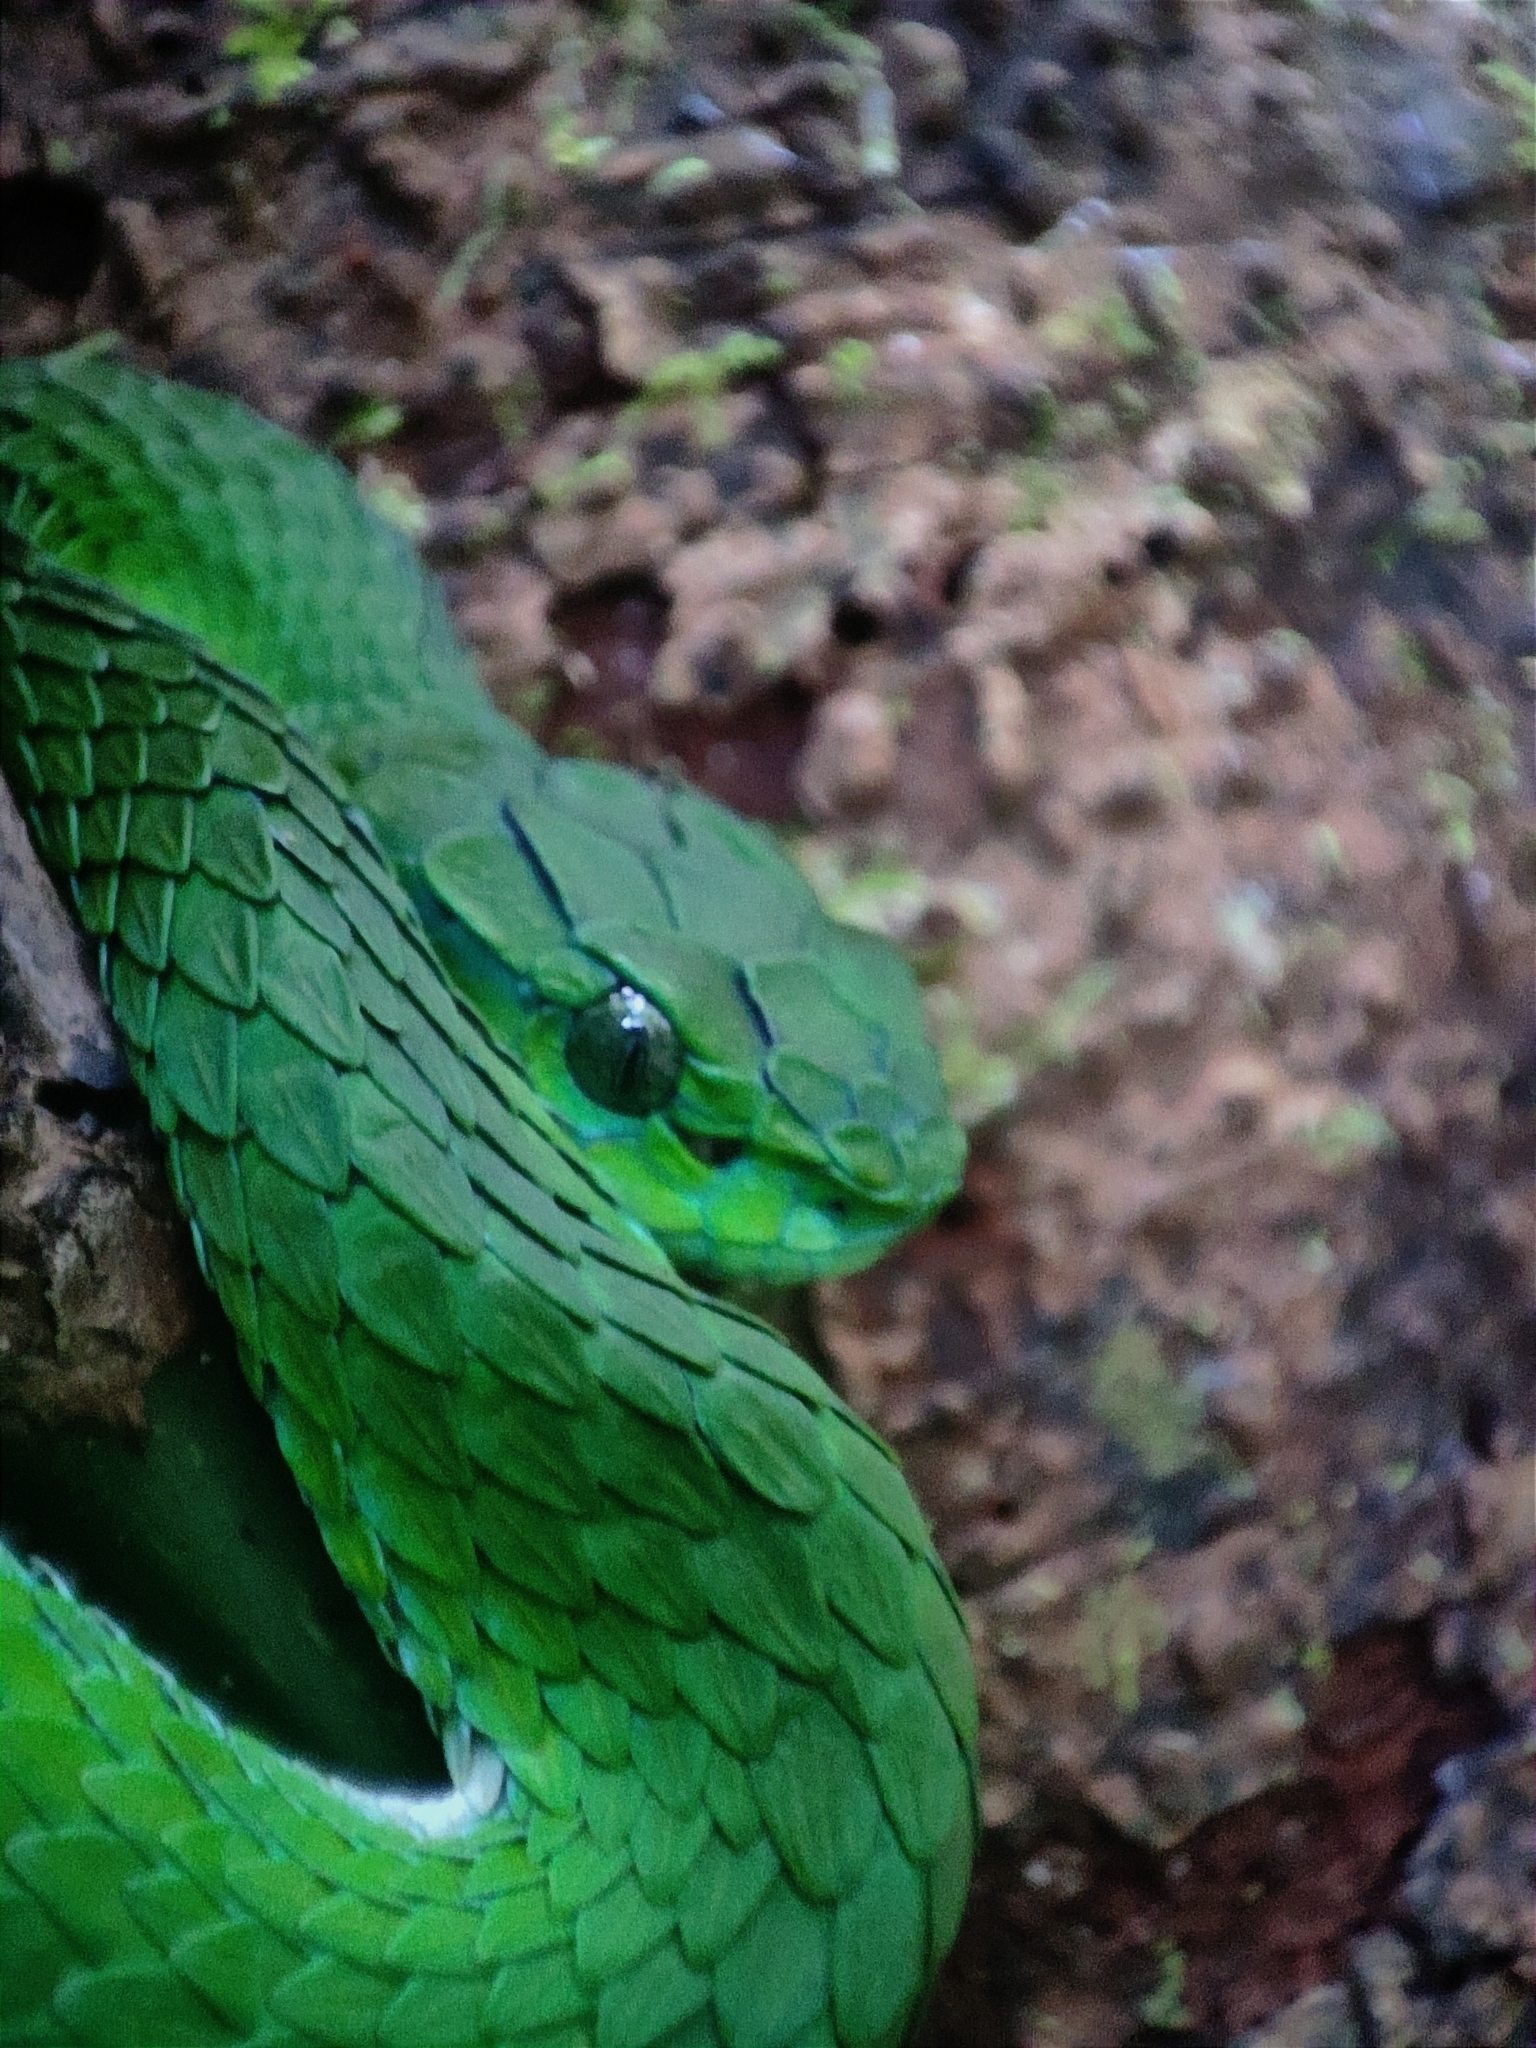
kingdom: Animalia
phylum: Chordata
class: Squamata
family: Viperidae
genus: Craspedocephalus
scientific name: Craspedocephalus macrolepis
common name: Large-scaled pit viper
